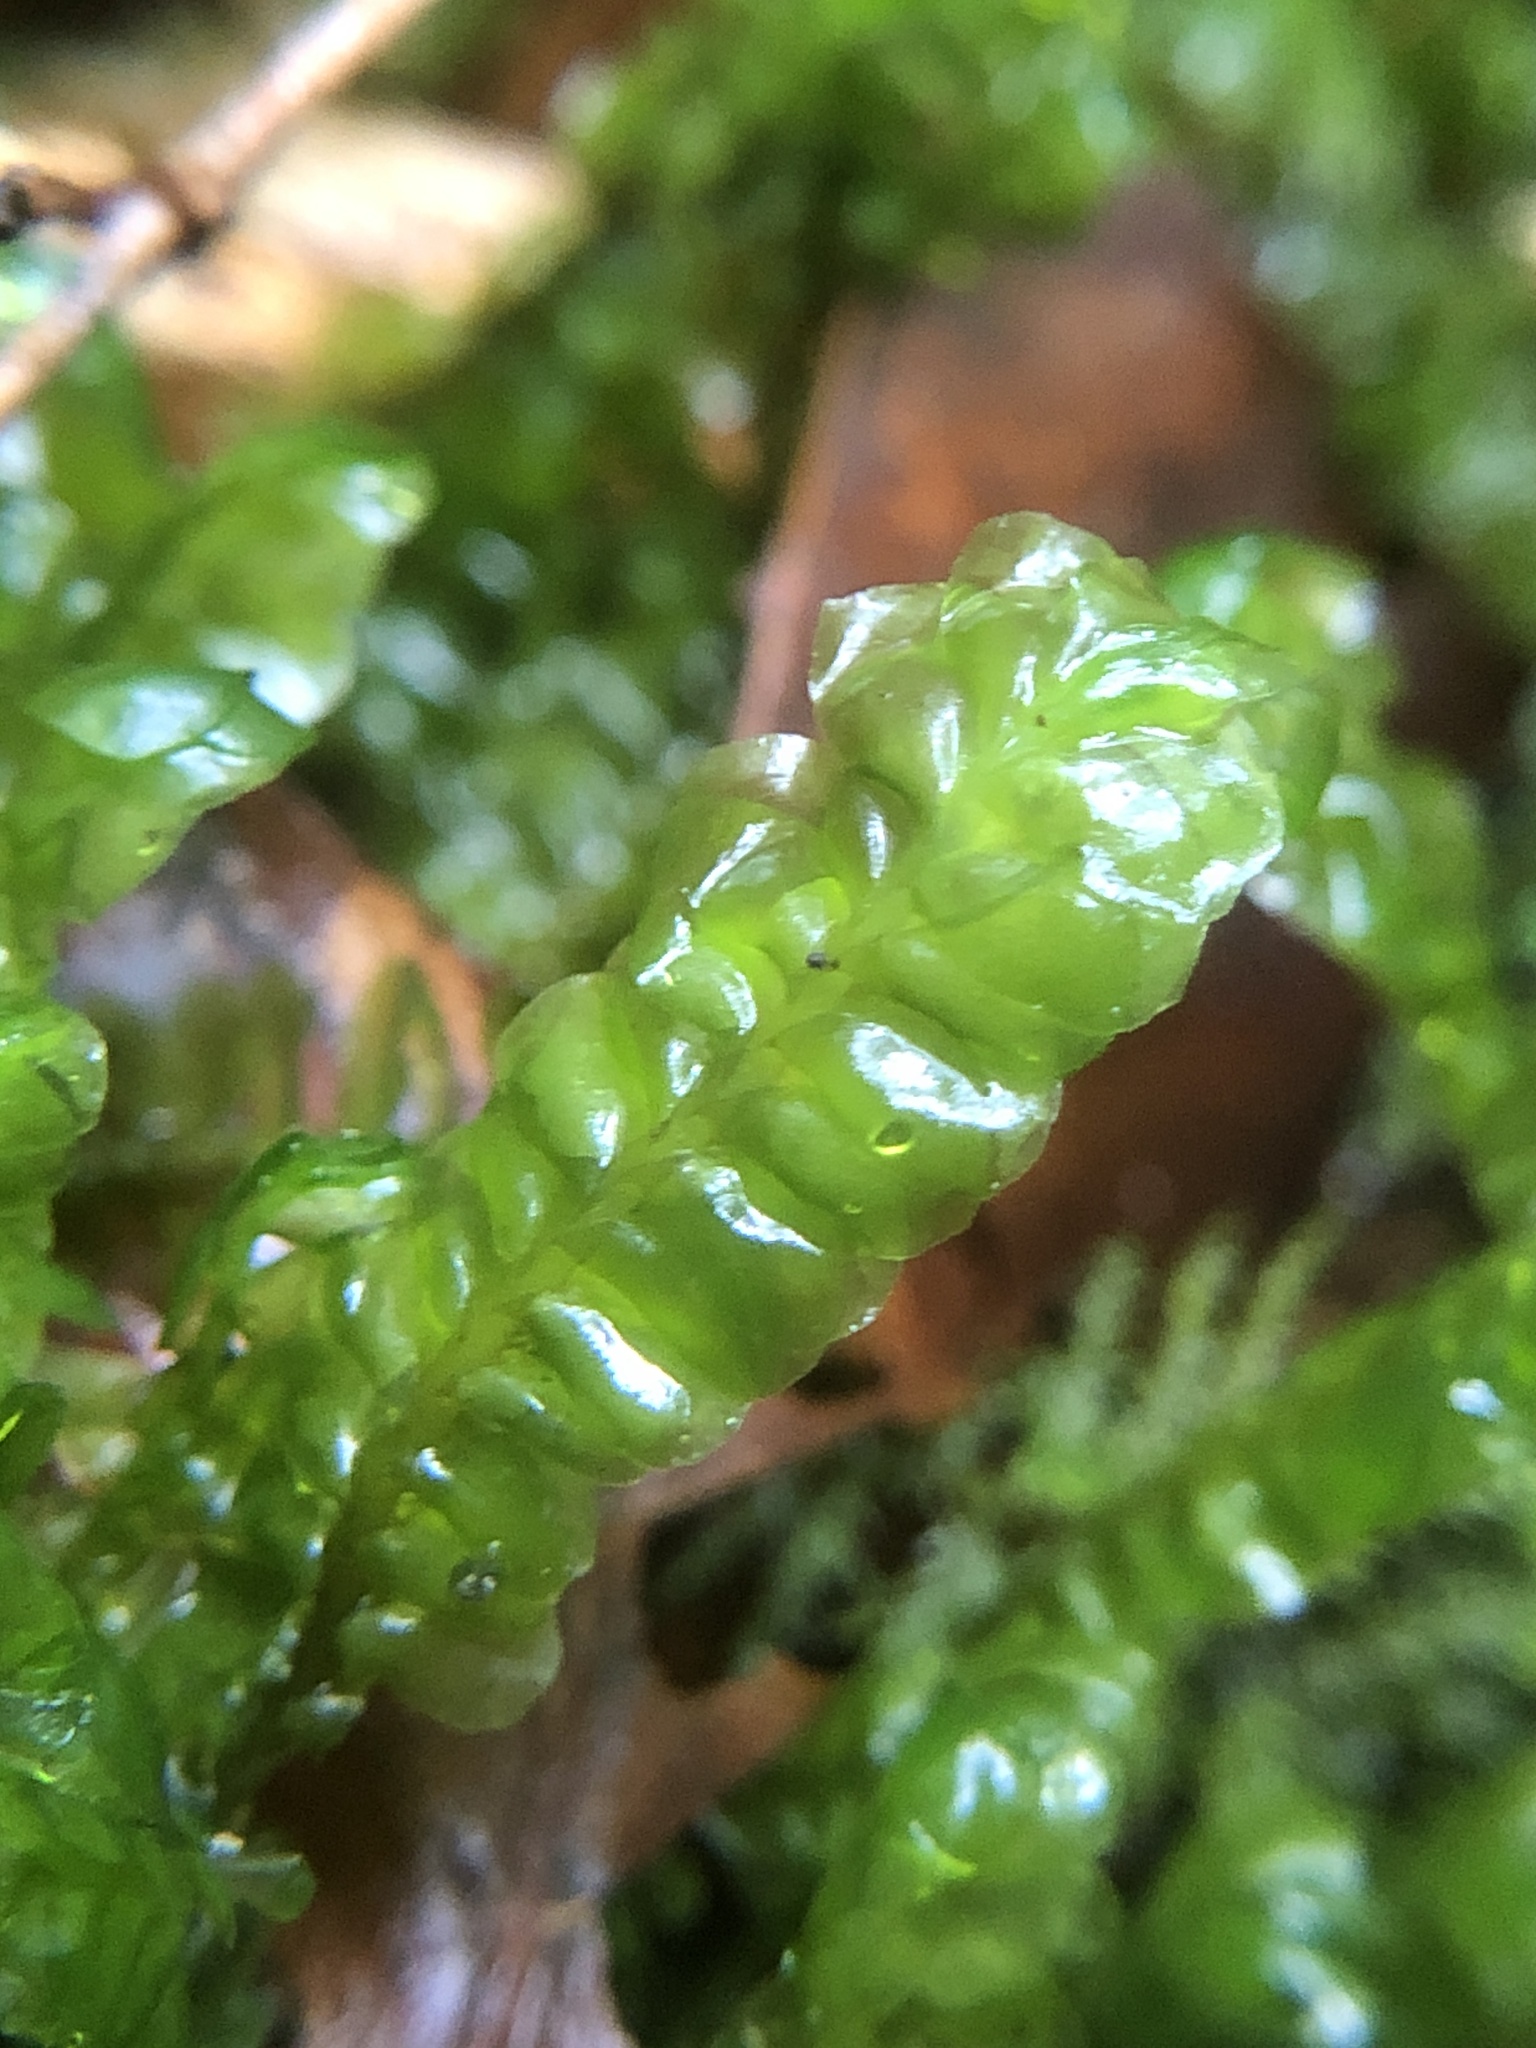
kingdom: Plantae
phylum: Marchantiophyta
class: Jungermanniopsida
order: Jungermanniales
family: Plagiochilaceae
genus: Plagiochila
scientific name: Plagiochila asplenioides
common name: Greater featherwort
